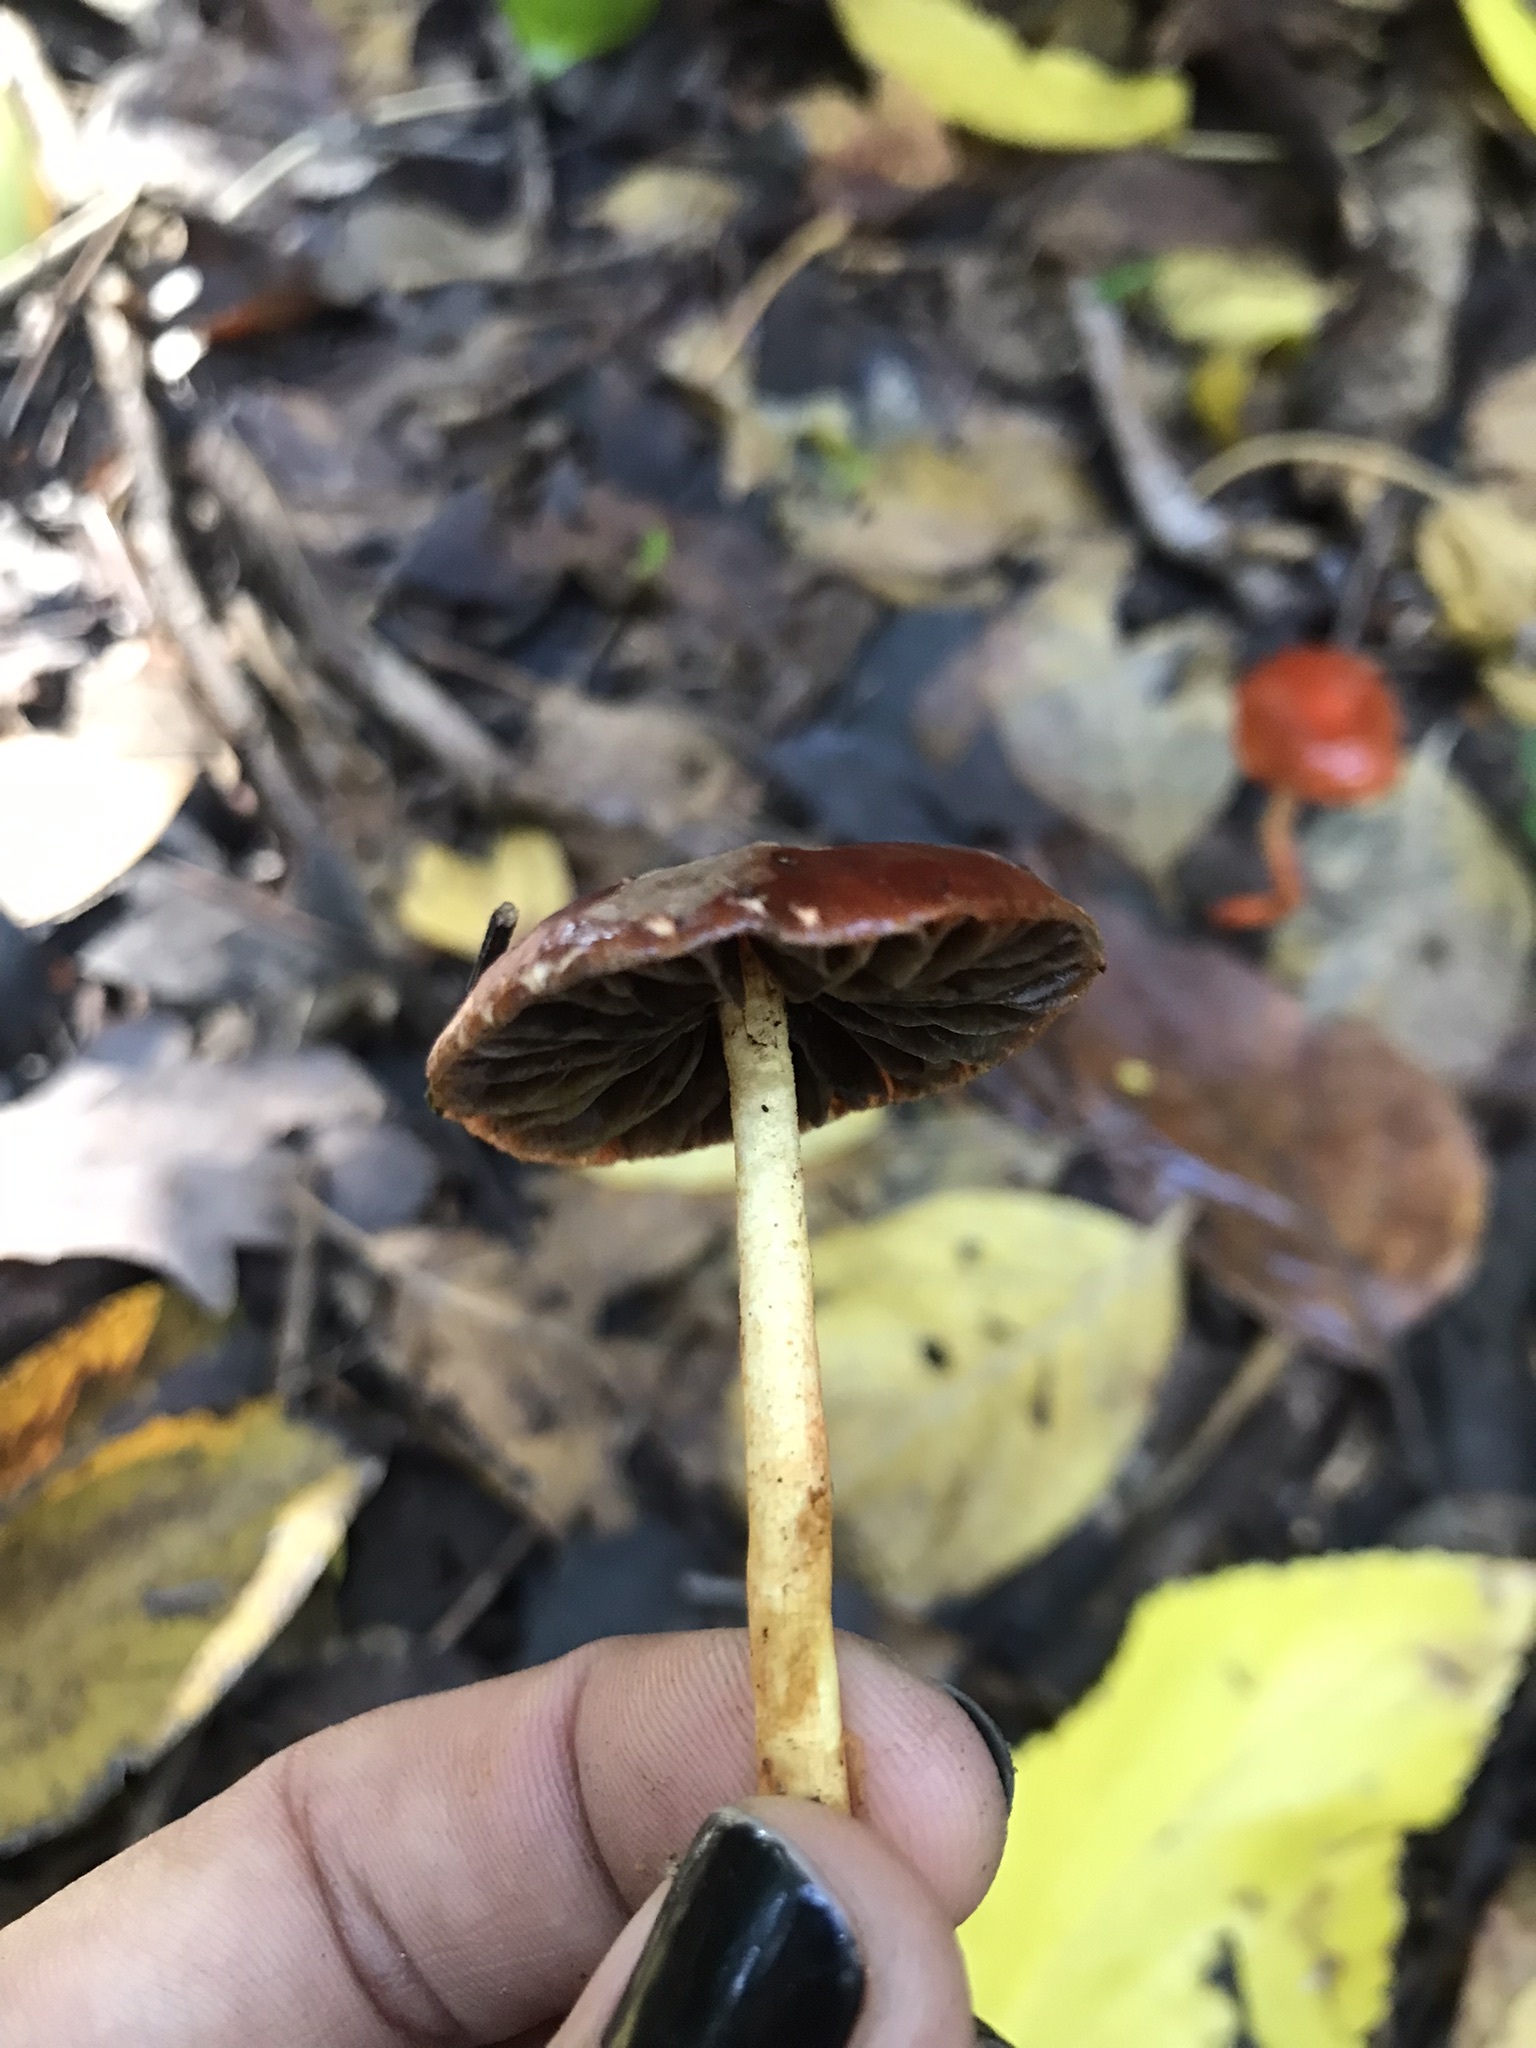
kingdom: Fungi
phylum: Basidiomycota
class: Agaricomycetes
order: Agaricales
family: Strophariaceae
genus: Leratiomyces
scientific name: Leratiomyces ceres
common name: Redlead roundhead
